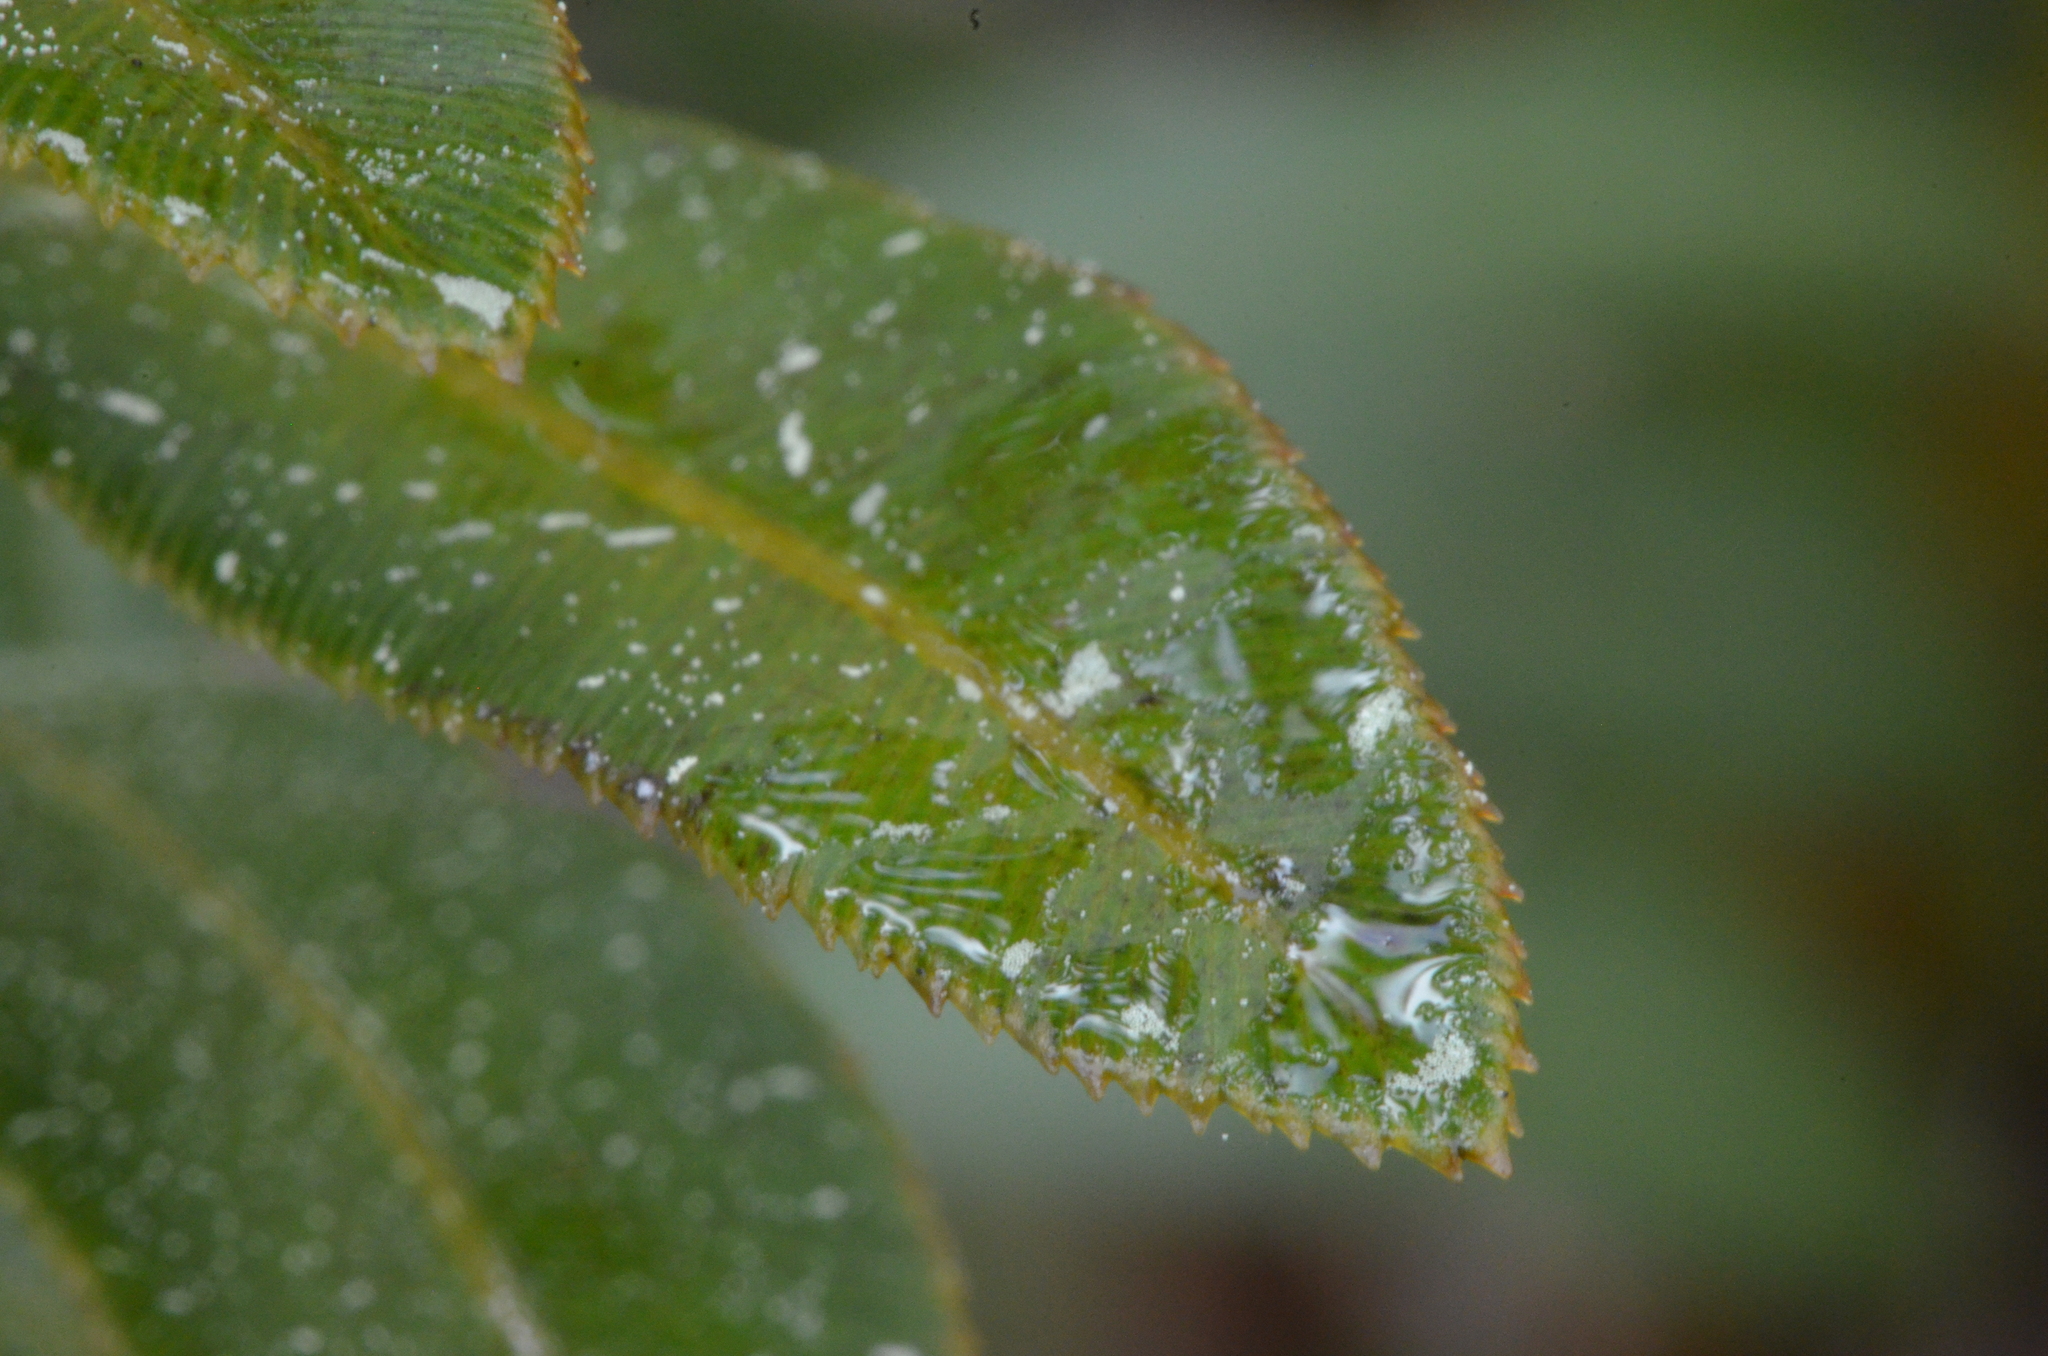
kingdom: Plantae
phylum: Tracheophyta
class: Polypodiopsida
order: Polypodiales
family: Blechnaceae
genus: Telmatoblechnum
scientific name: Telmatoblechnum serrulatum
